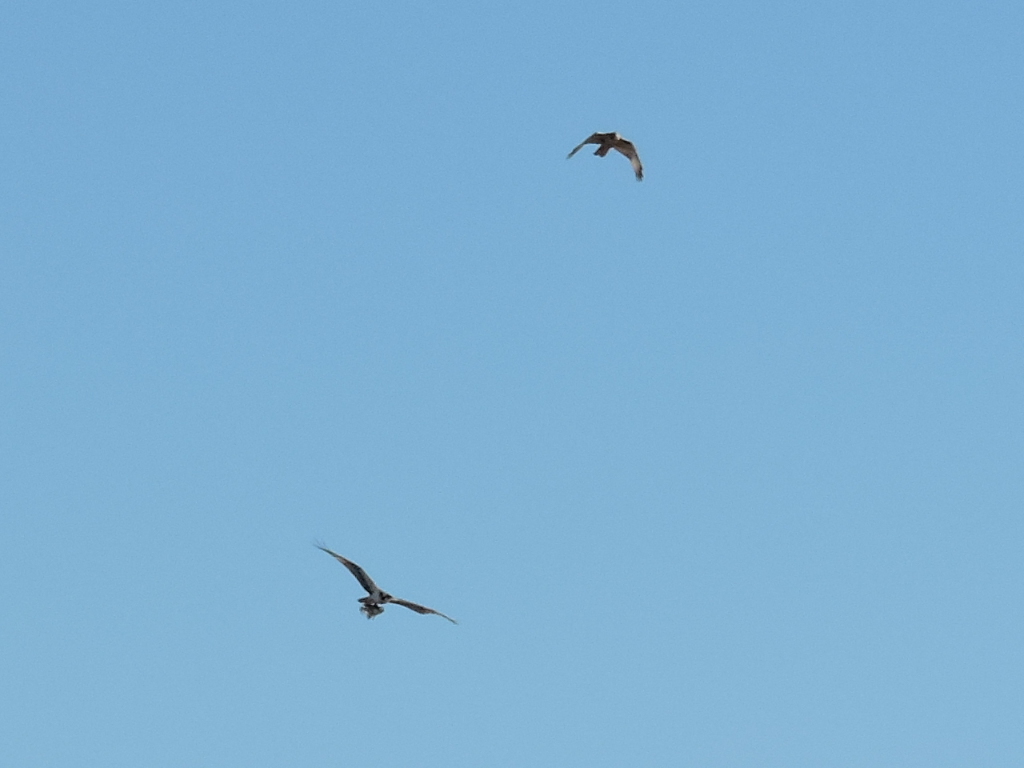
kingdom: Animalia
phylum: Chordata
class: Aves
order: Accipitriformes
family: Pandionidae
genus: Pandion
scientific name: Pandion haliaetus
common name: Osprey
